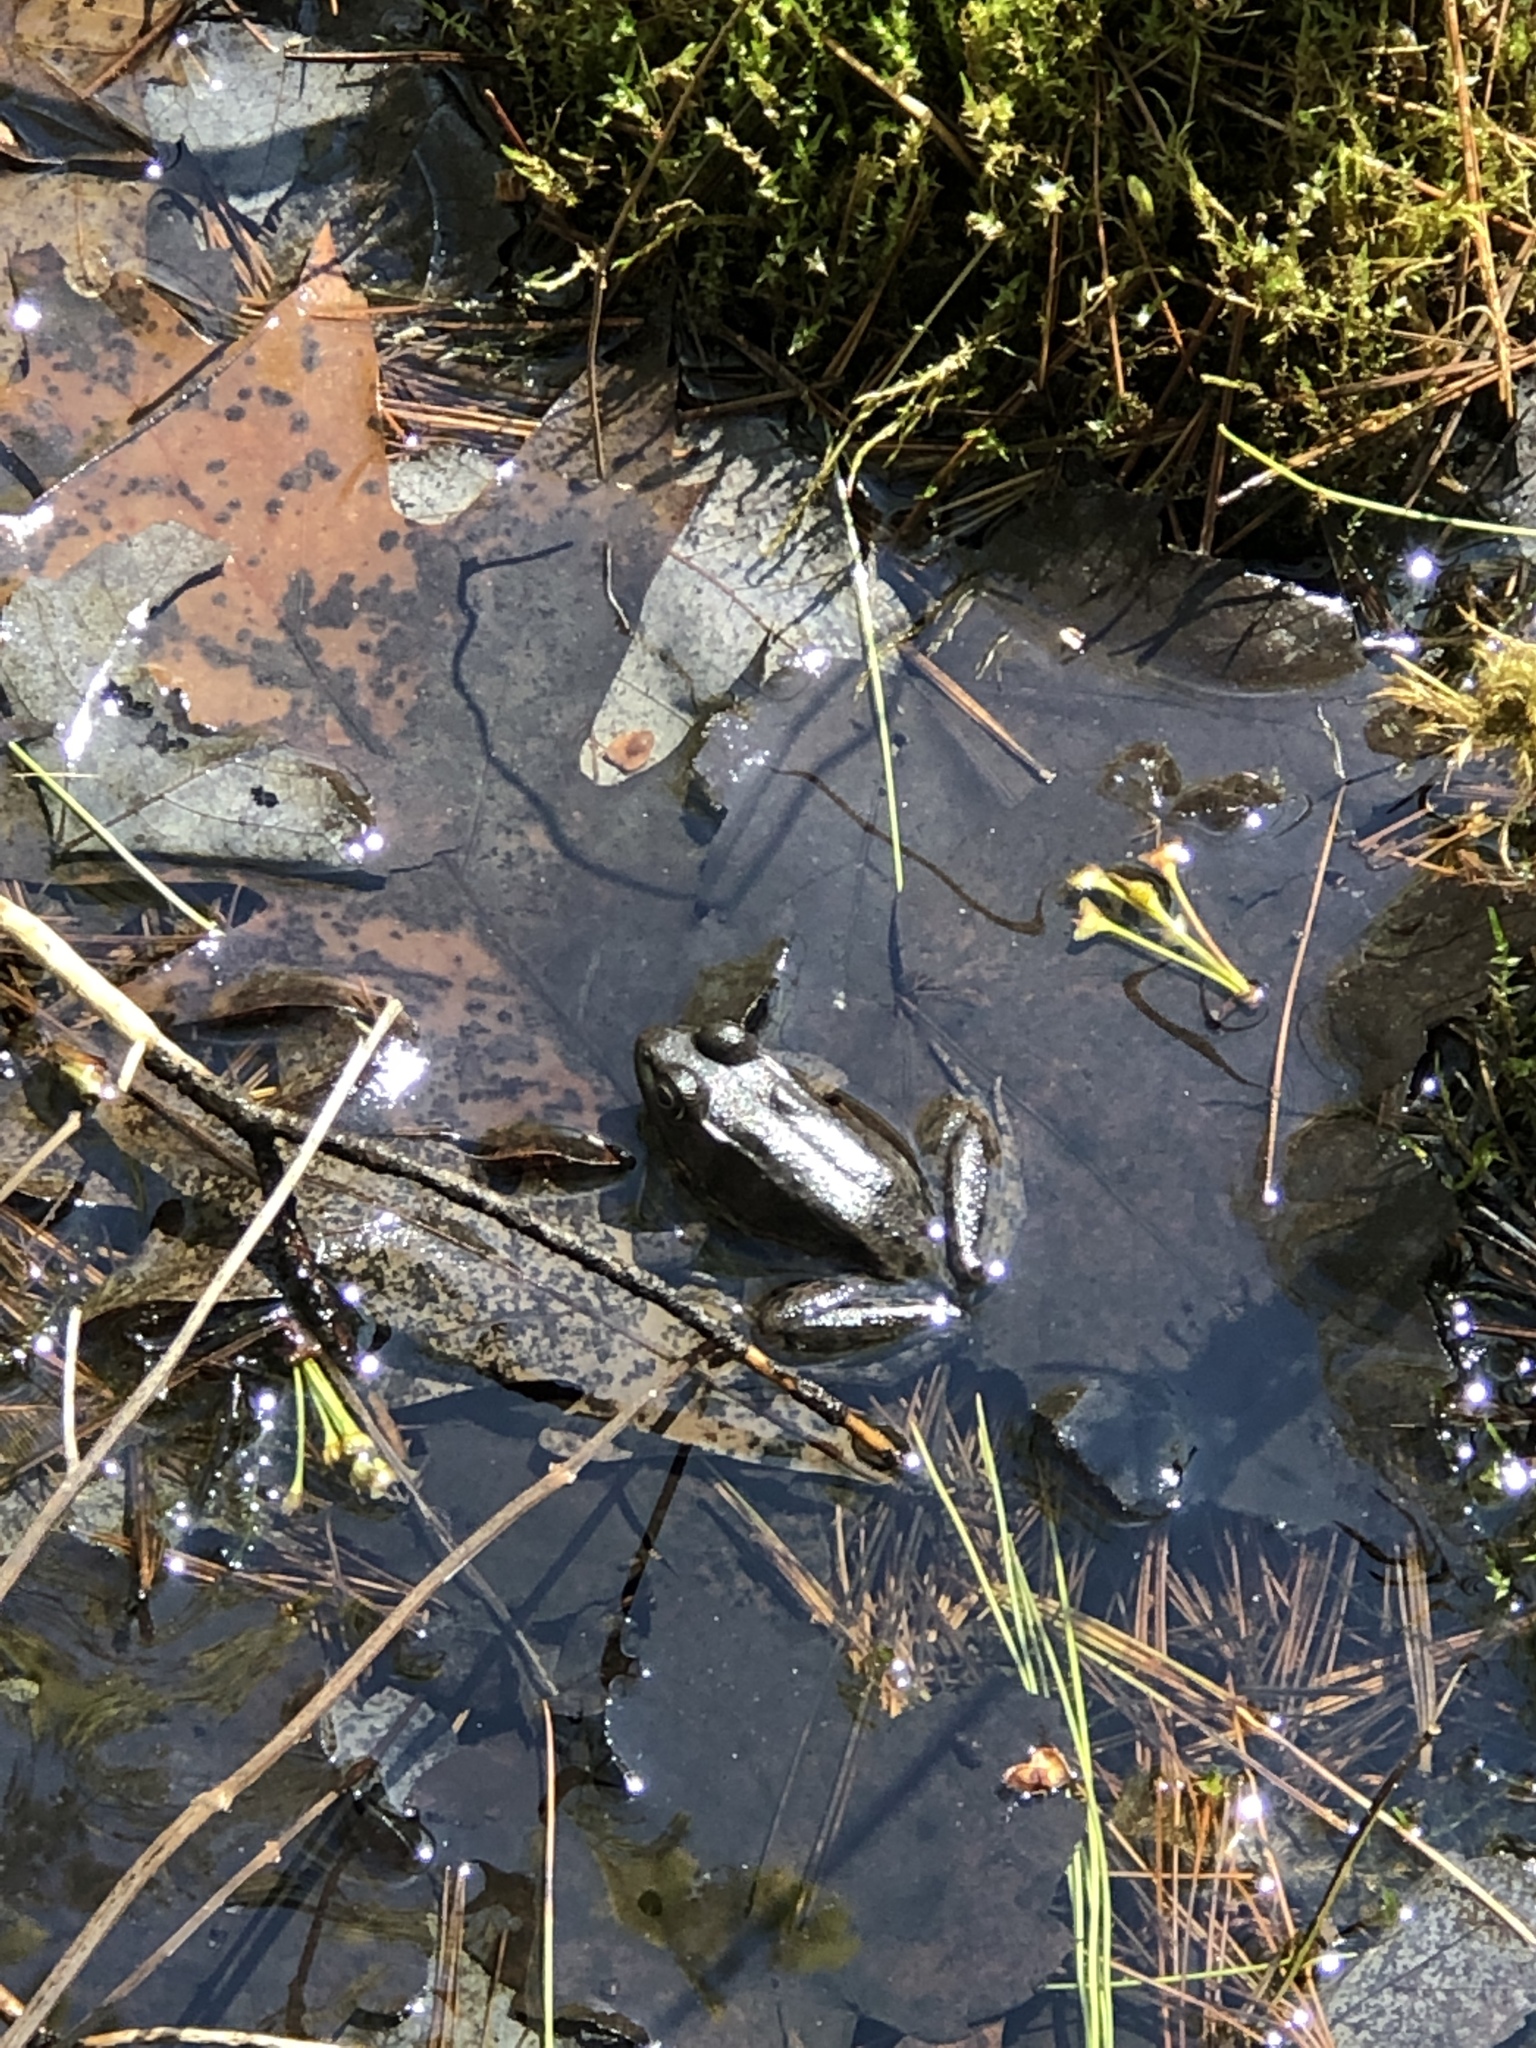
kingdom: Animalia
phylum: Chordata
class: Amphibia
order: Anura
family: Ranidae
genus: Lithobates
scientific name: Lithobates clamitans
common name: Green frog
